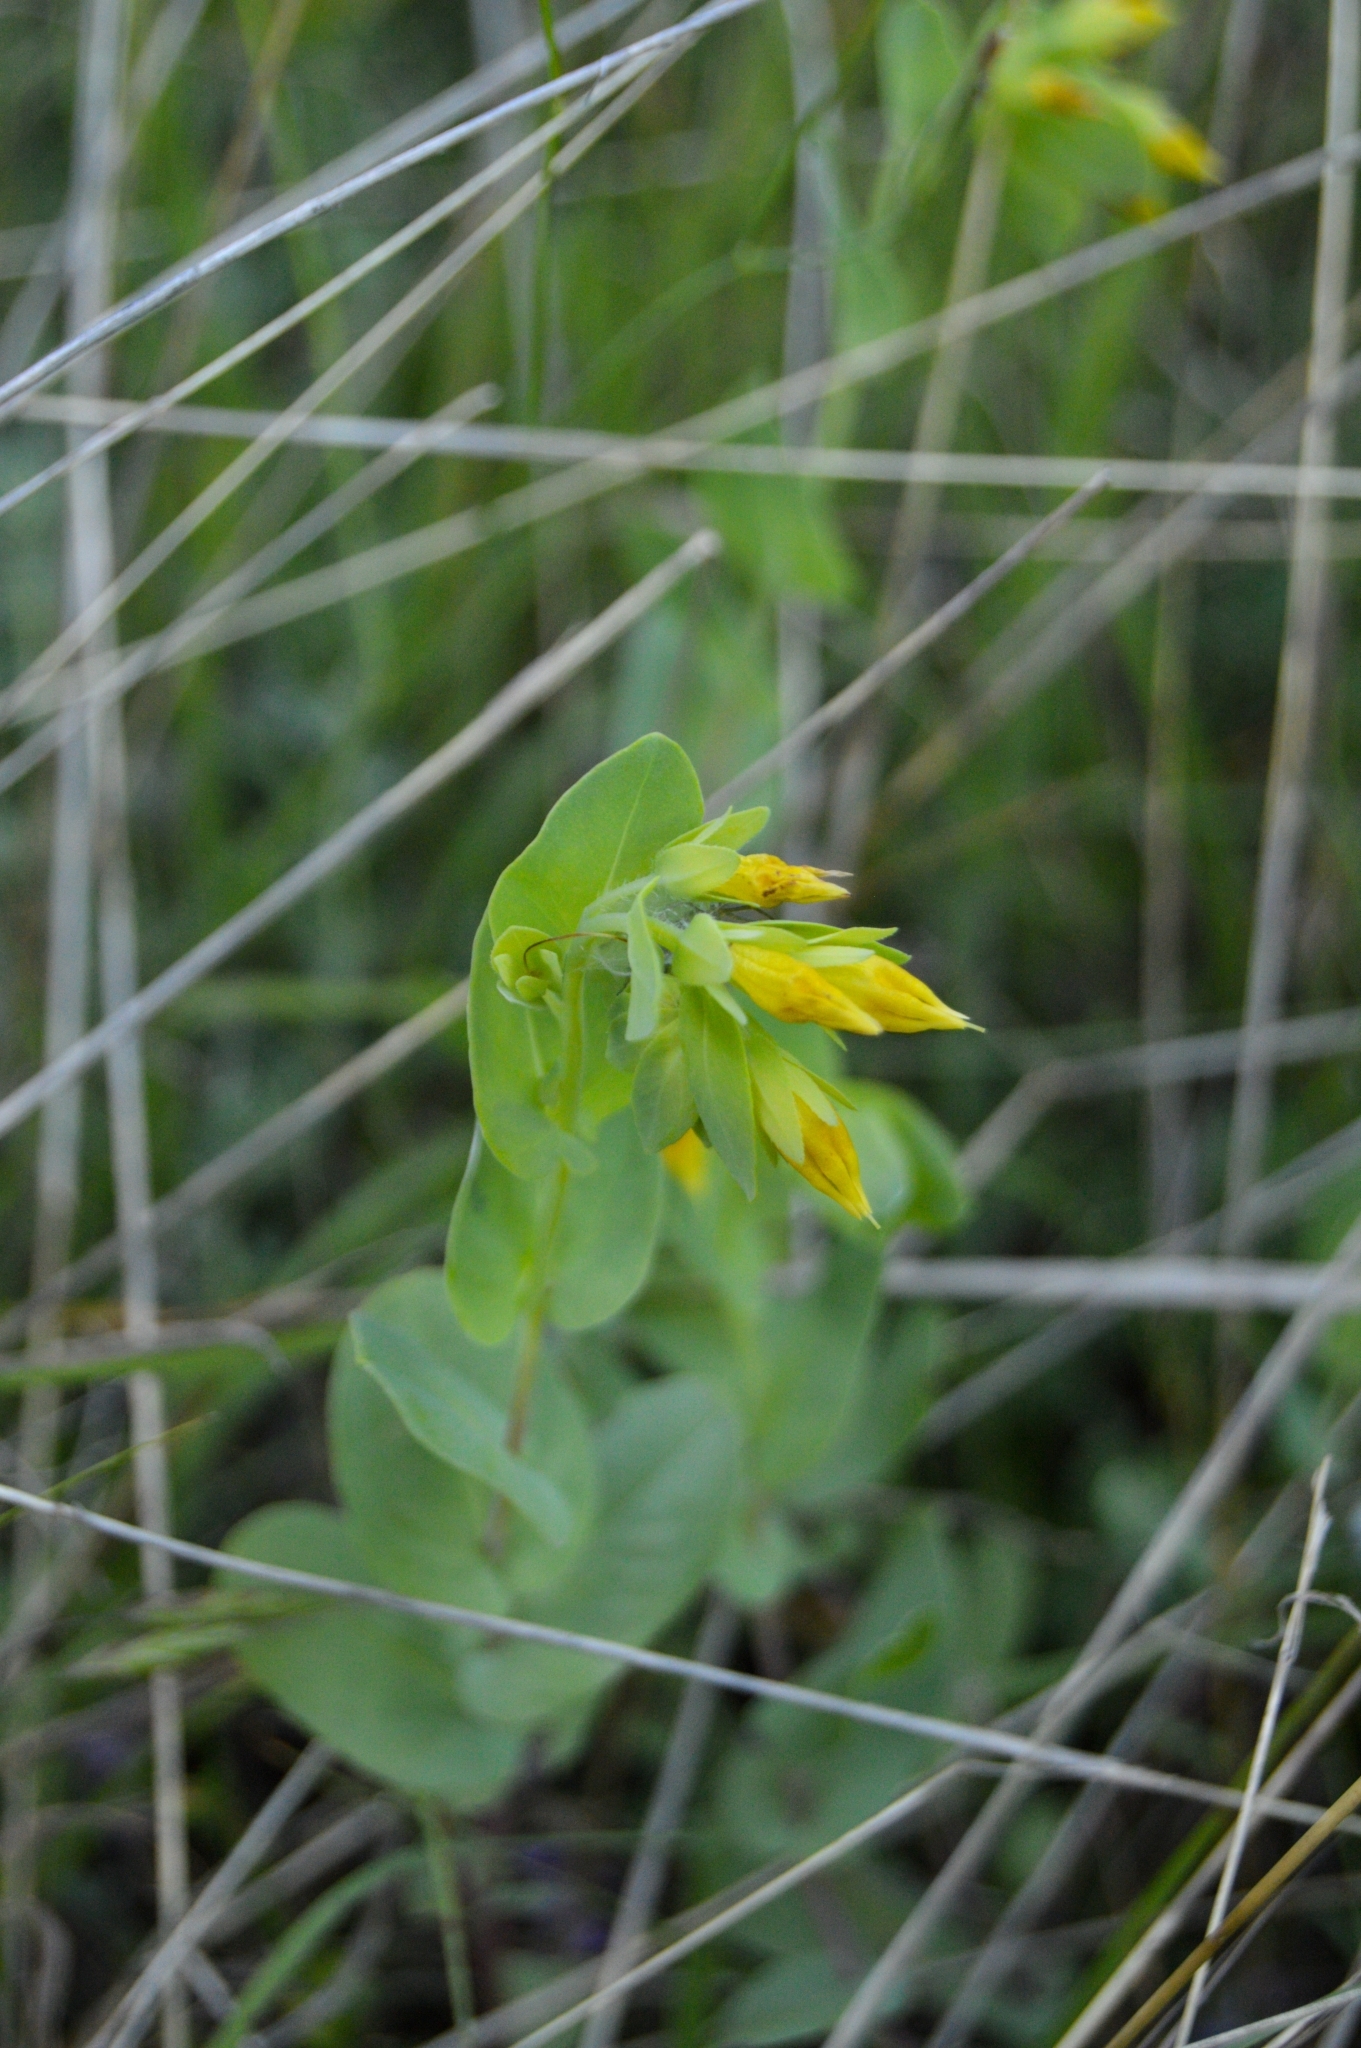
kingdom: Plantae
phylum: Tracheophyta
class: Magnoliopsida
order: Boraginales
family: Boraginaceae
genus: Cerinthe
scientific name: Cerinthe minor
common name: Lesser honeywort
